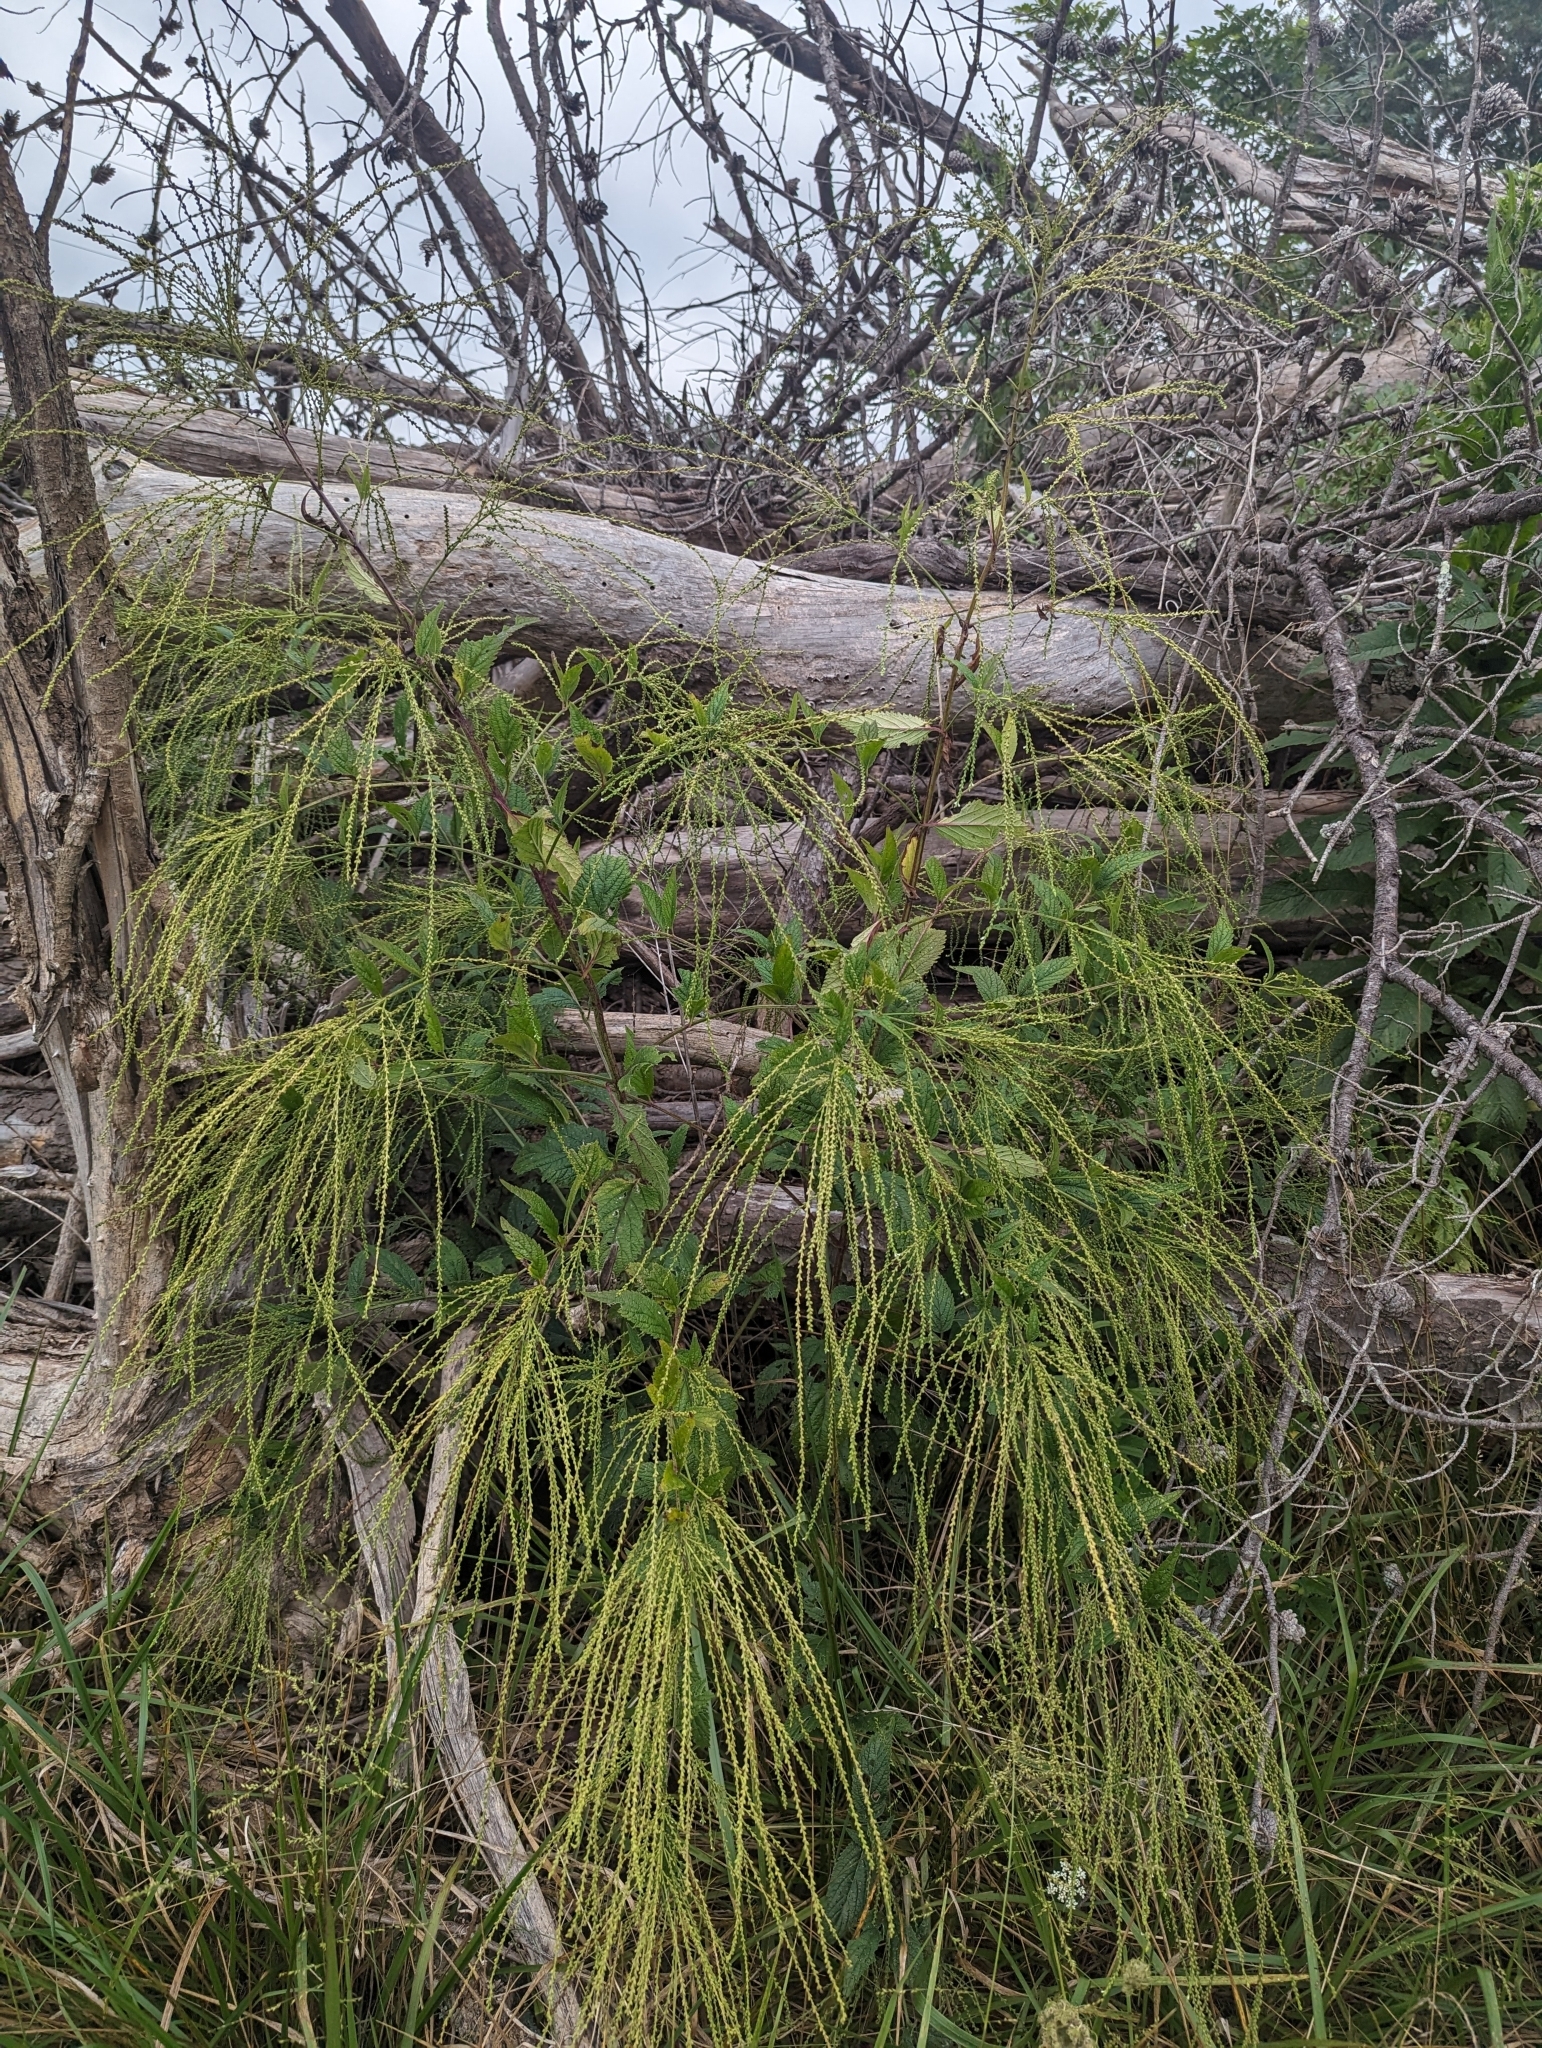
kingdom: Plantae
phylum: Tracheophyta
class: Magnoliopsida
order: Lamiales
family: Verbenaceae
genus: Verbena
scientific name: Verbena urticifolia
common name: Nettle-leaved vervain
